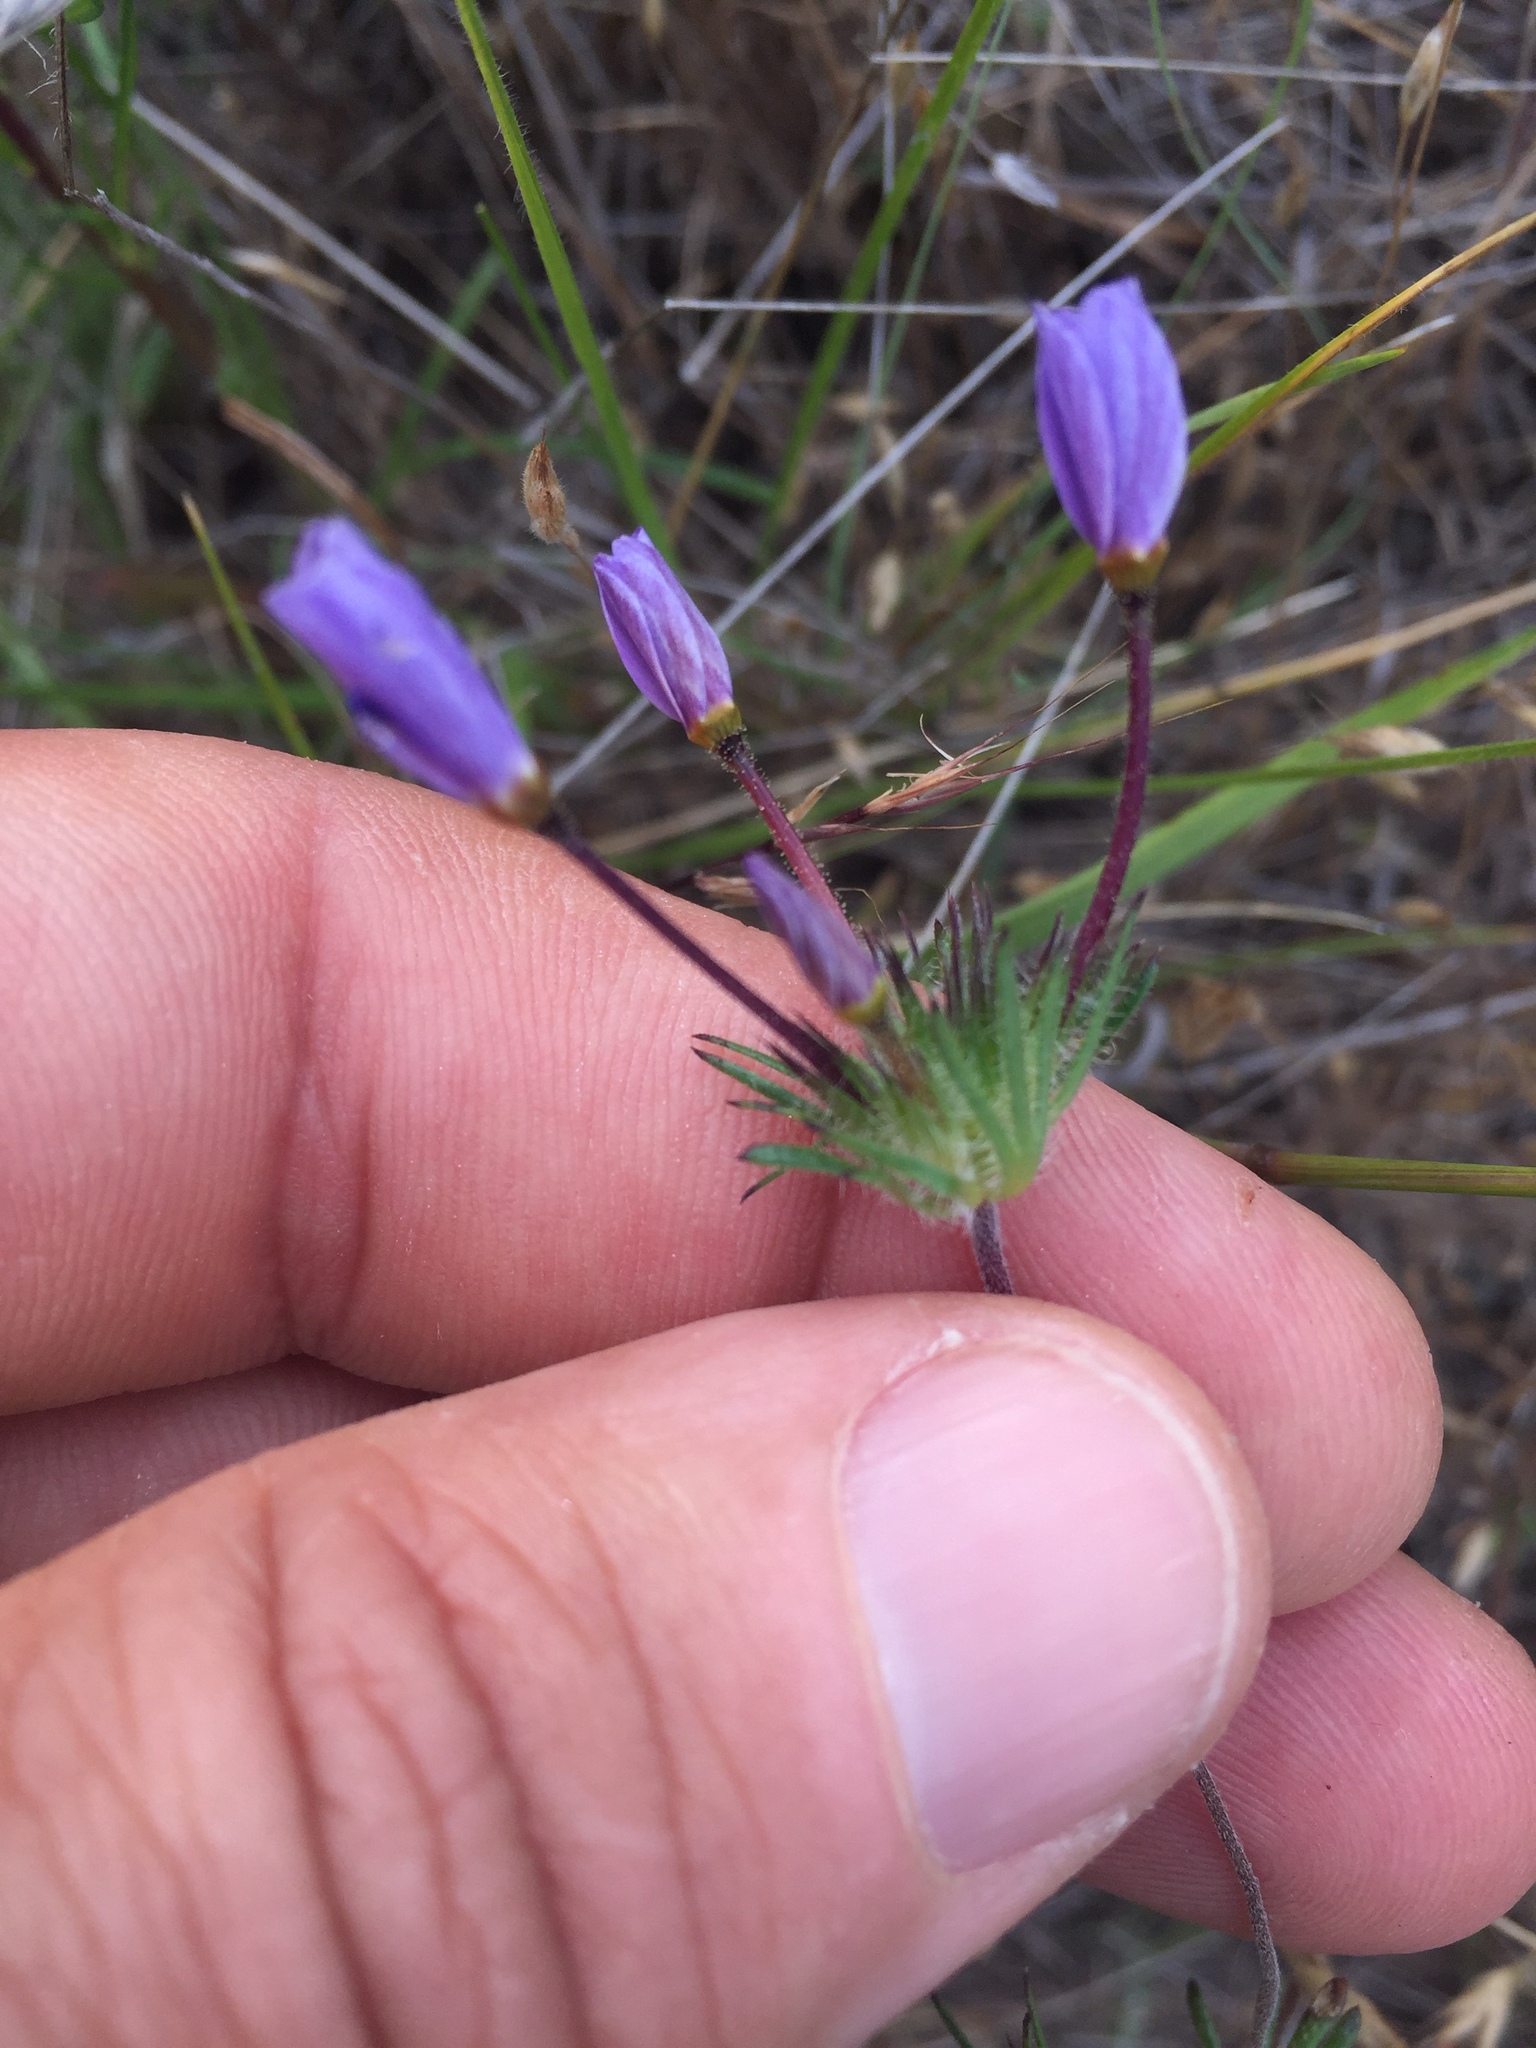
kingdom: Plantae
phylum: Tracheophyta
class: Magnoliopsida
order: Ericales
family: Polemoniaceae
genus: Leptosiphon
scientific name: Leptosiphon androsaceus
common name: False babystars
